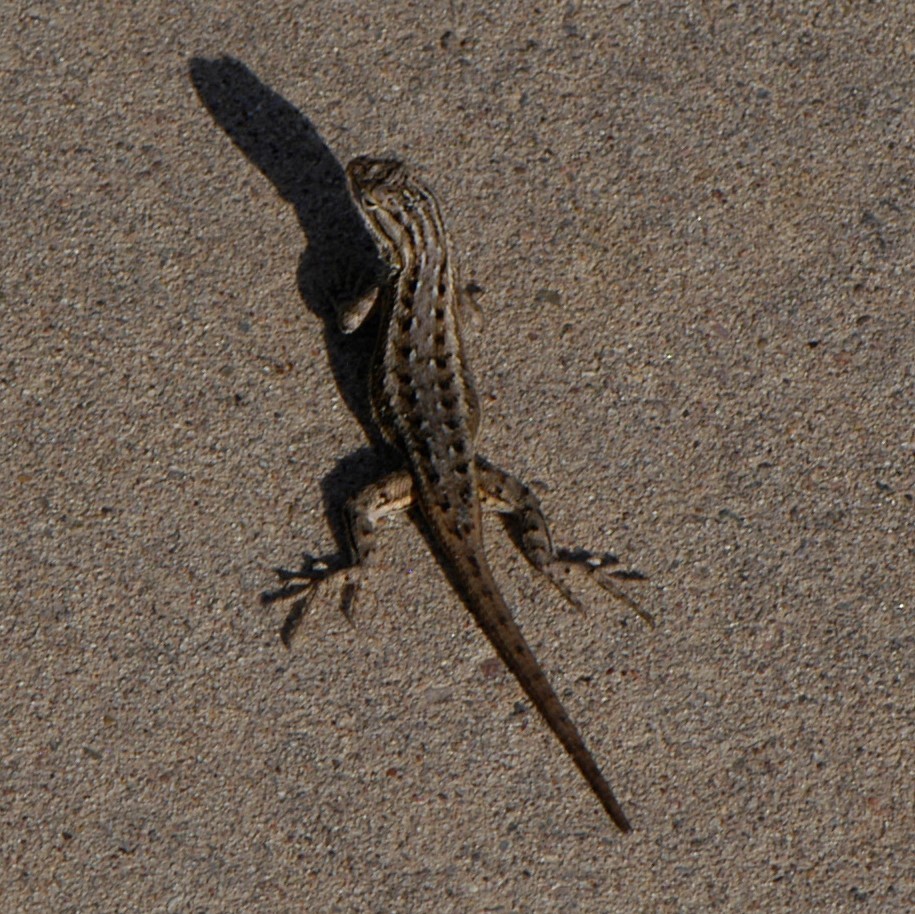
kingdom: Animalia
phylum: Chordata
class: Squamata
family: Phrynosomatidae
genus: Sceloporus
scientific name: Sceloporus cowlesi
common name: White sands prairie lizard
